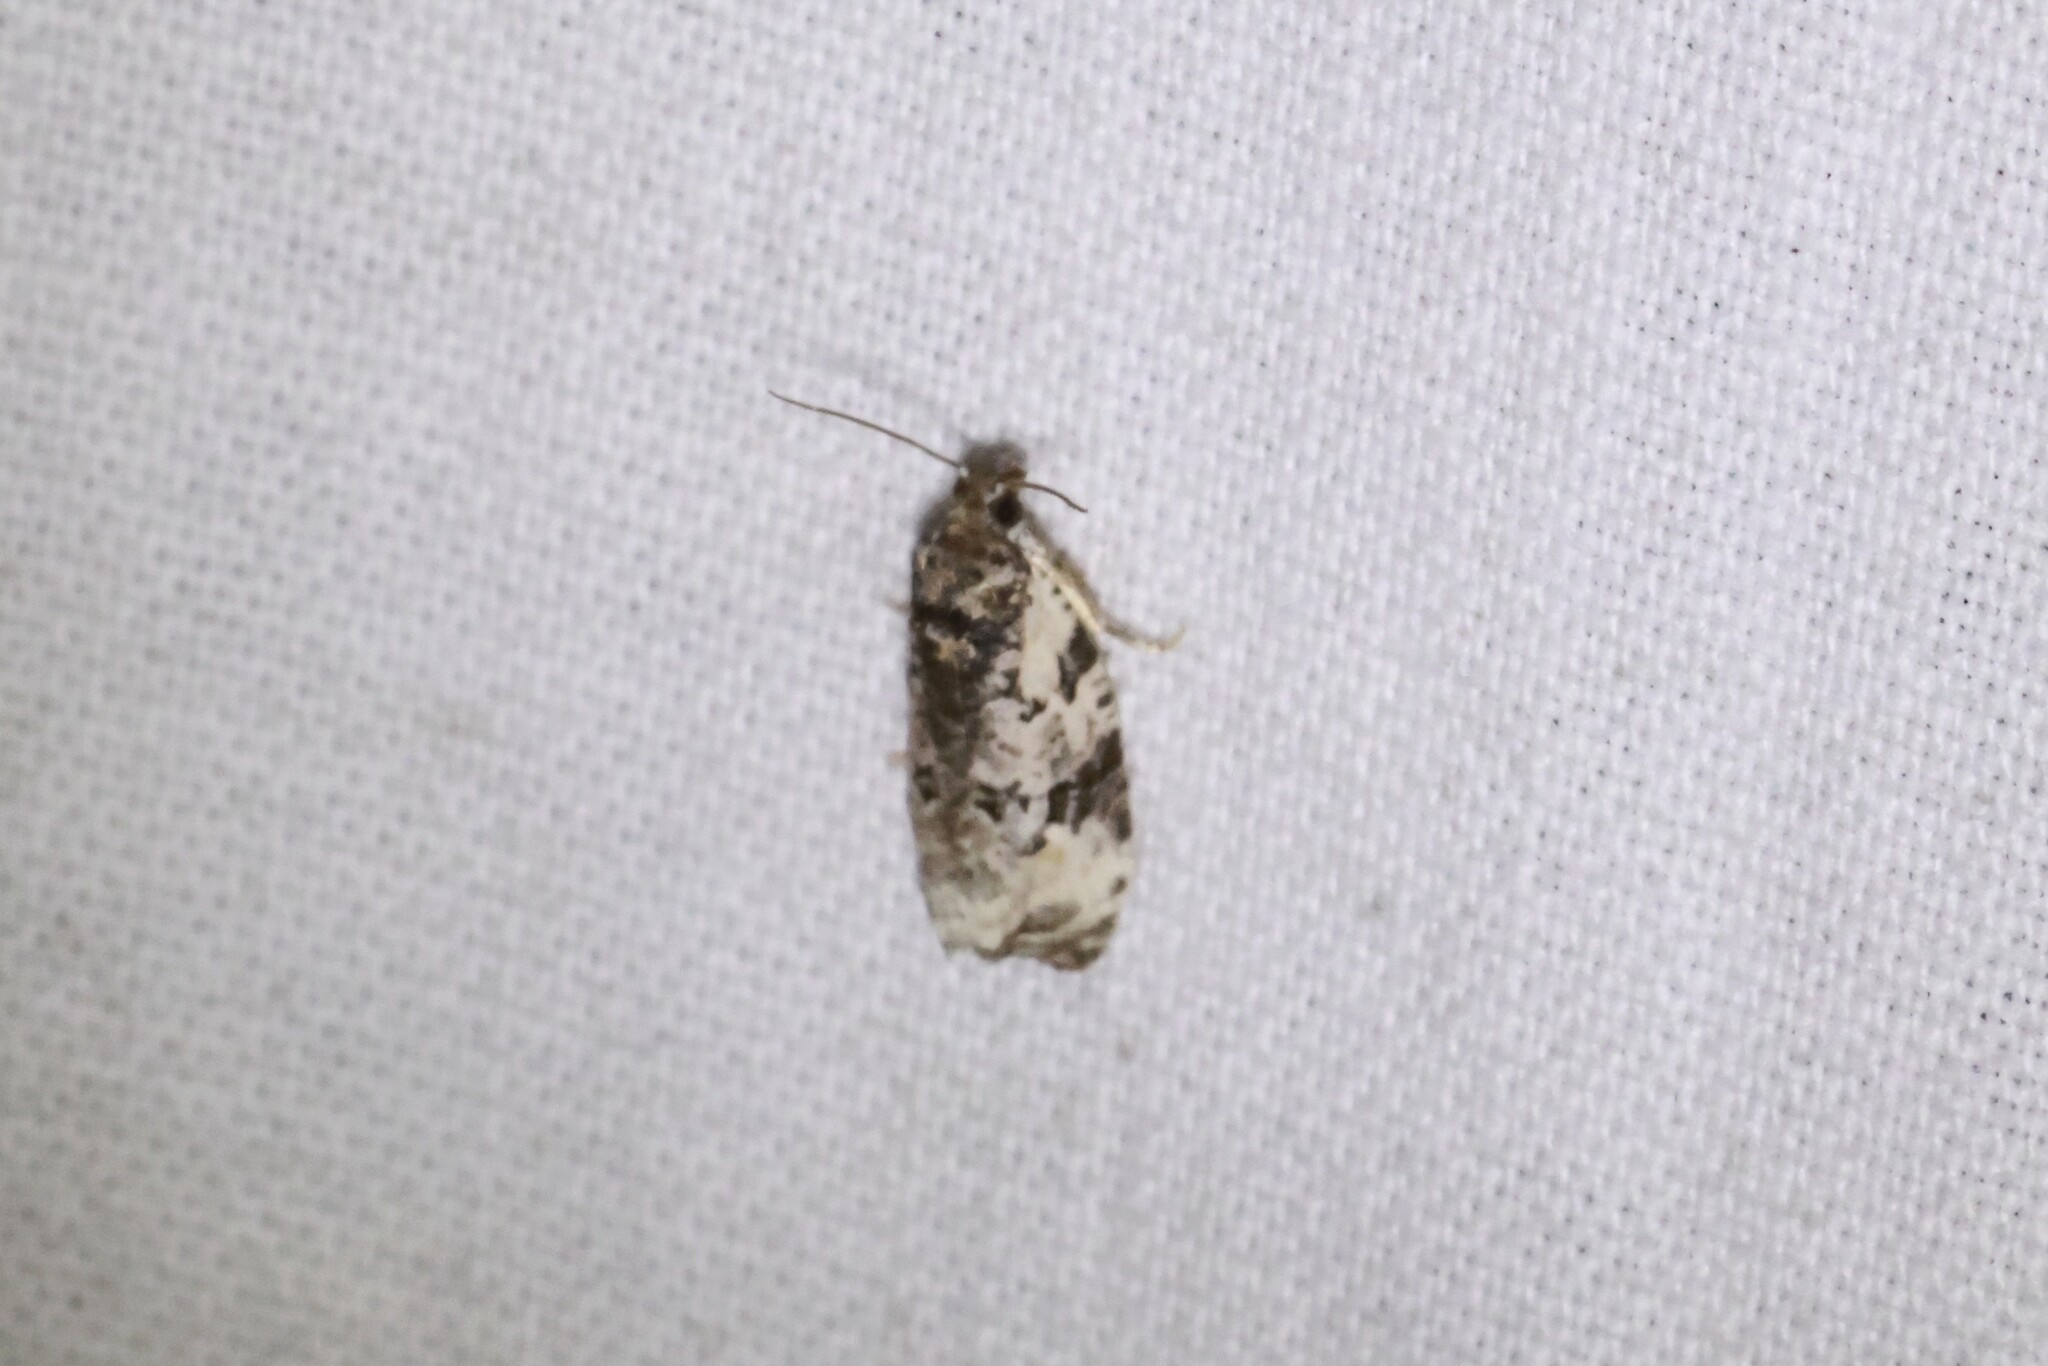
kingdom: Animalia
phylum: Arthropoda
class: Insecta
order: Lepidoptera
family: Tortricidae
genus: Apotomis
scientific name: Apotomis albeolana
